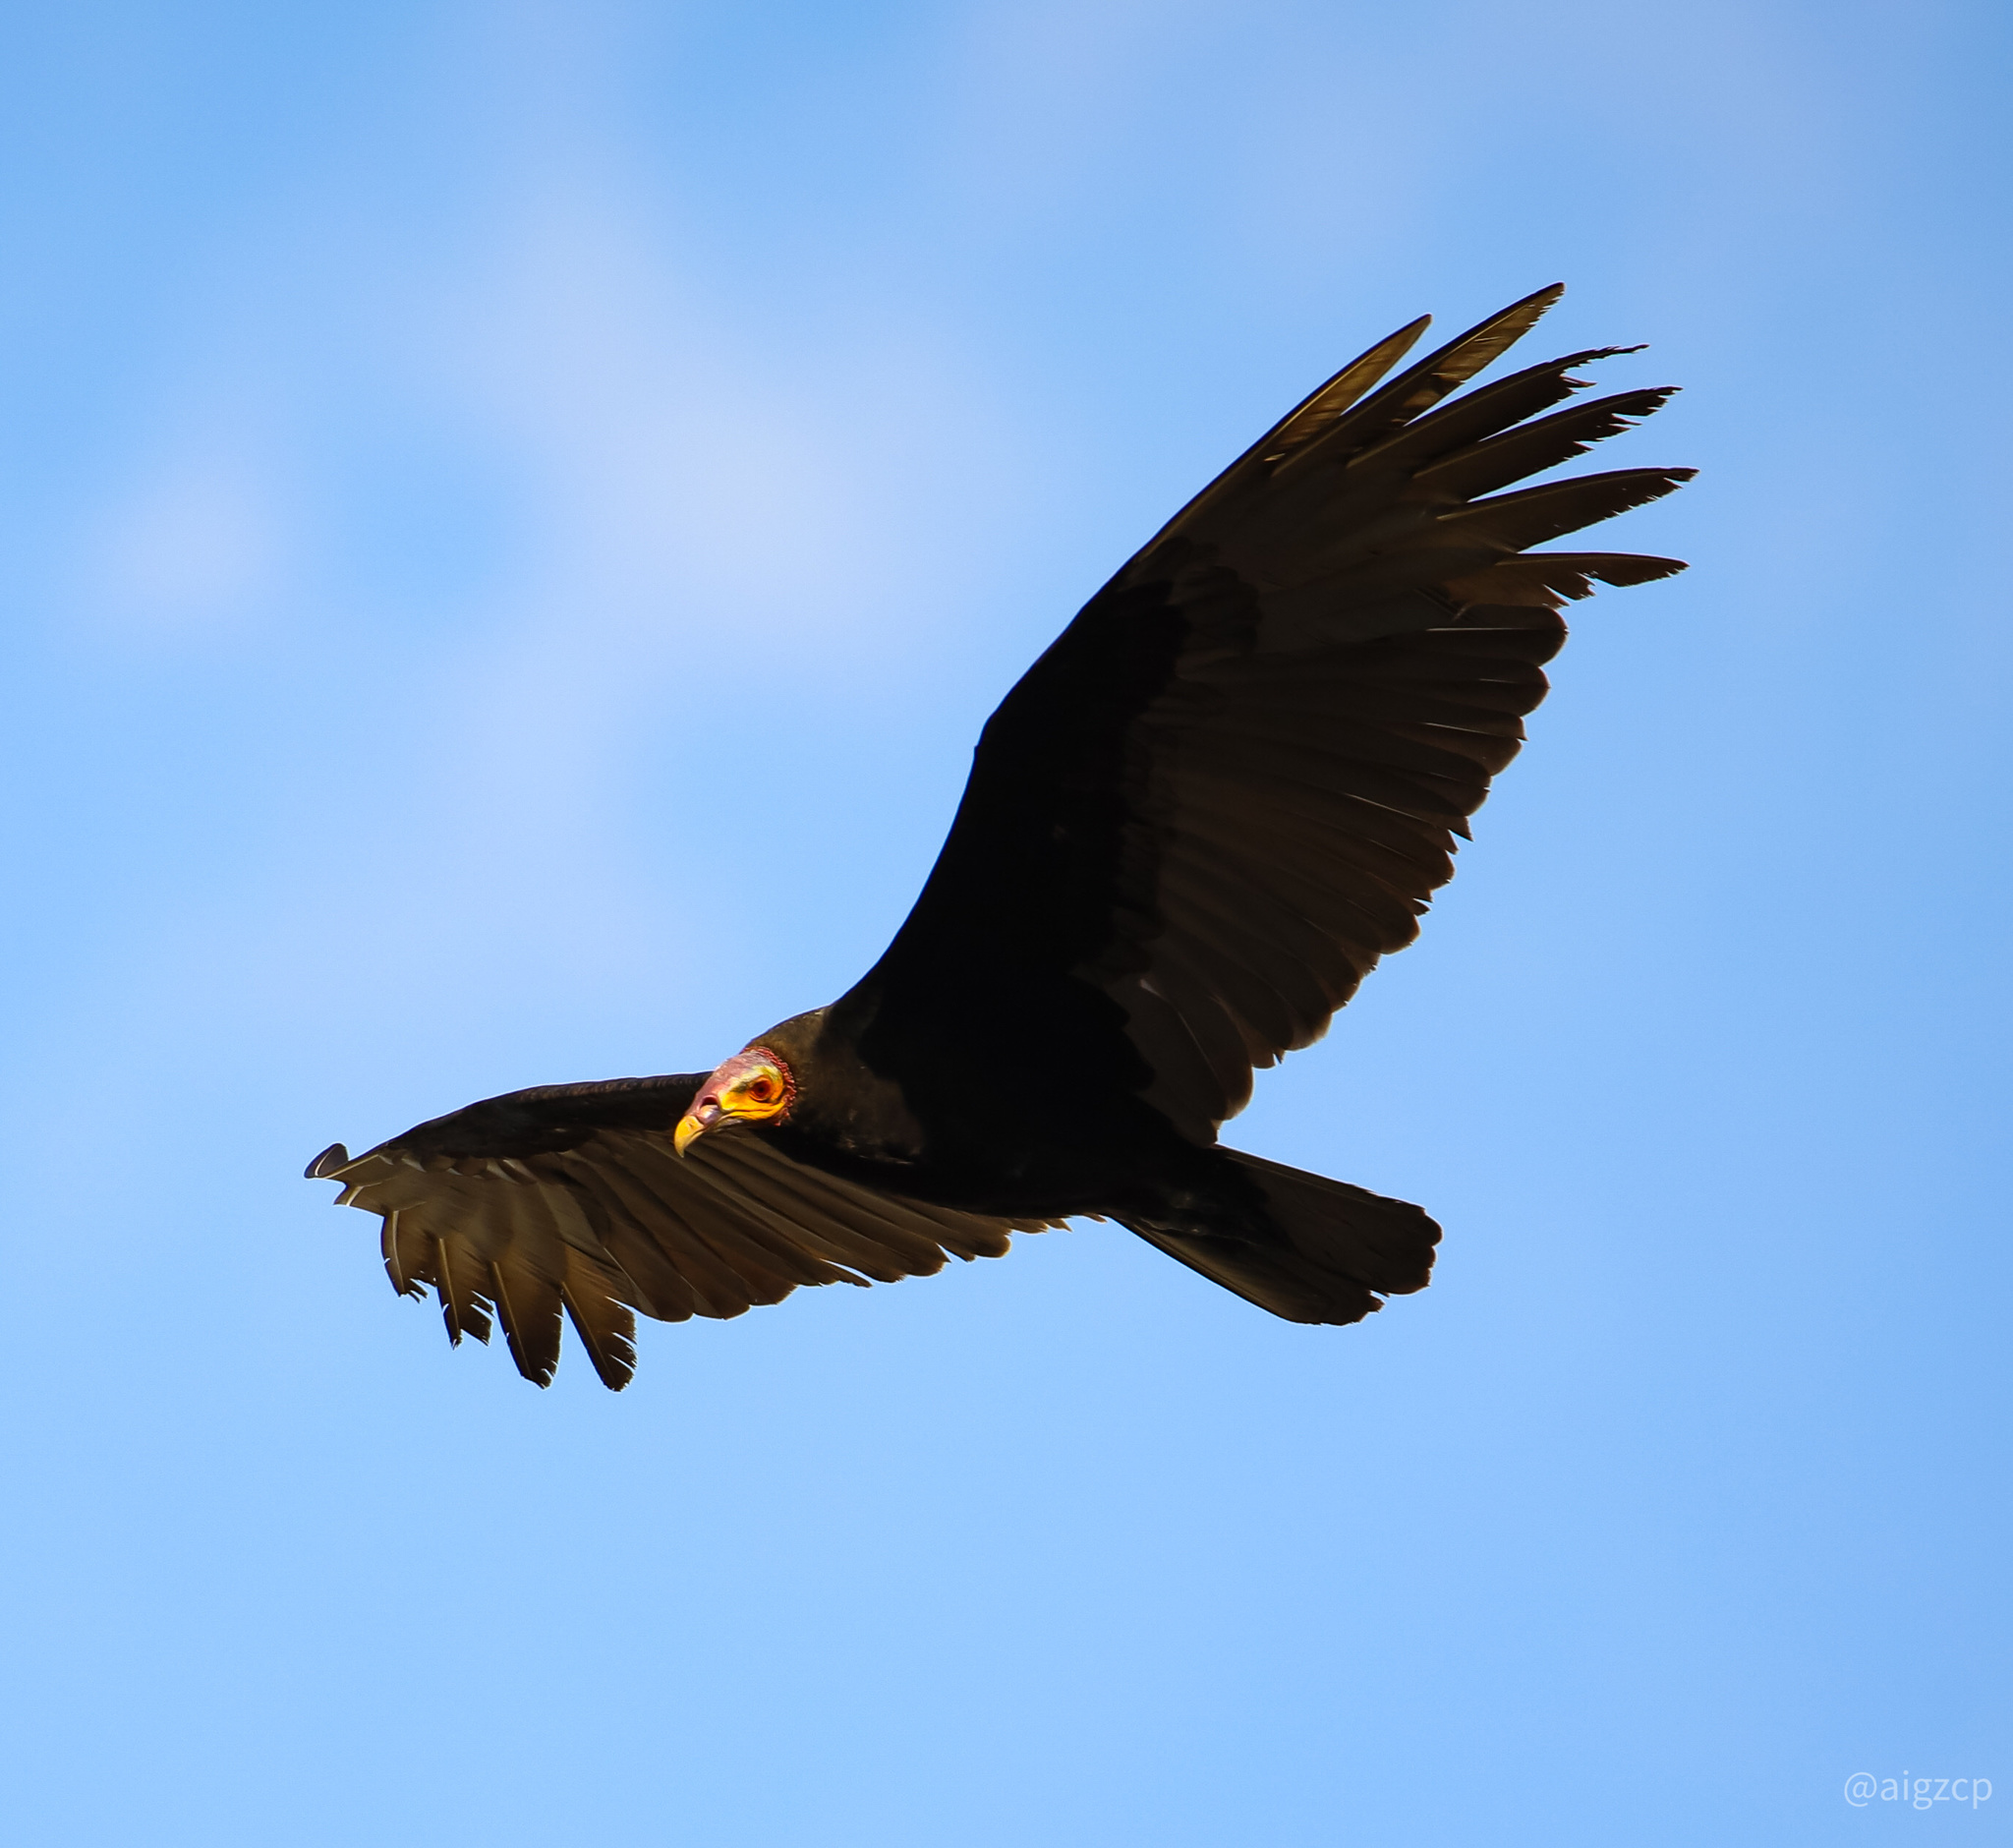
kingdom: Animalia
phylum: Chordata
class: Aves
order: Accipitriformes
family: Cathartidae
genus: Cathartes
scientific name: Cathartes burrovianus
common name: Lesser yellow-headed vulture
